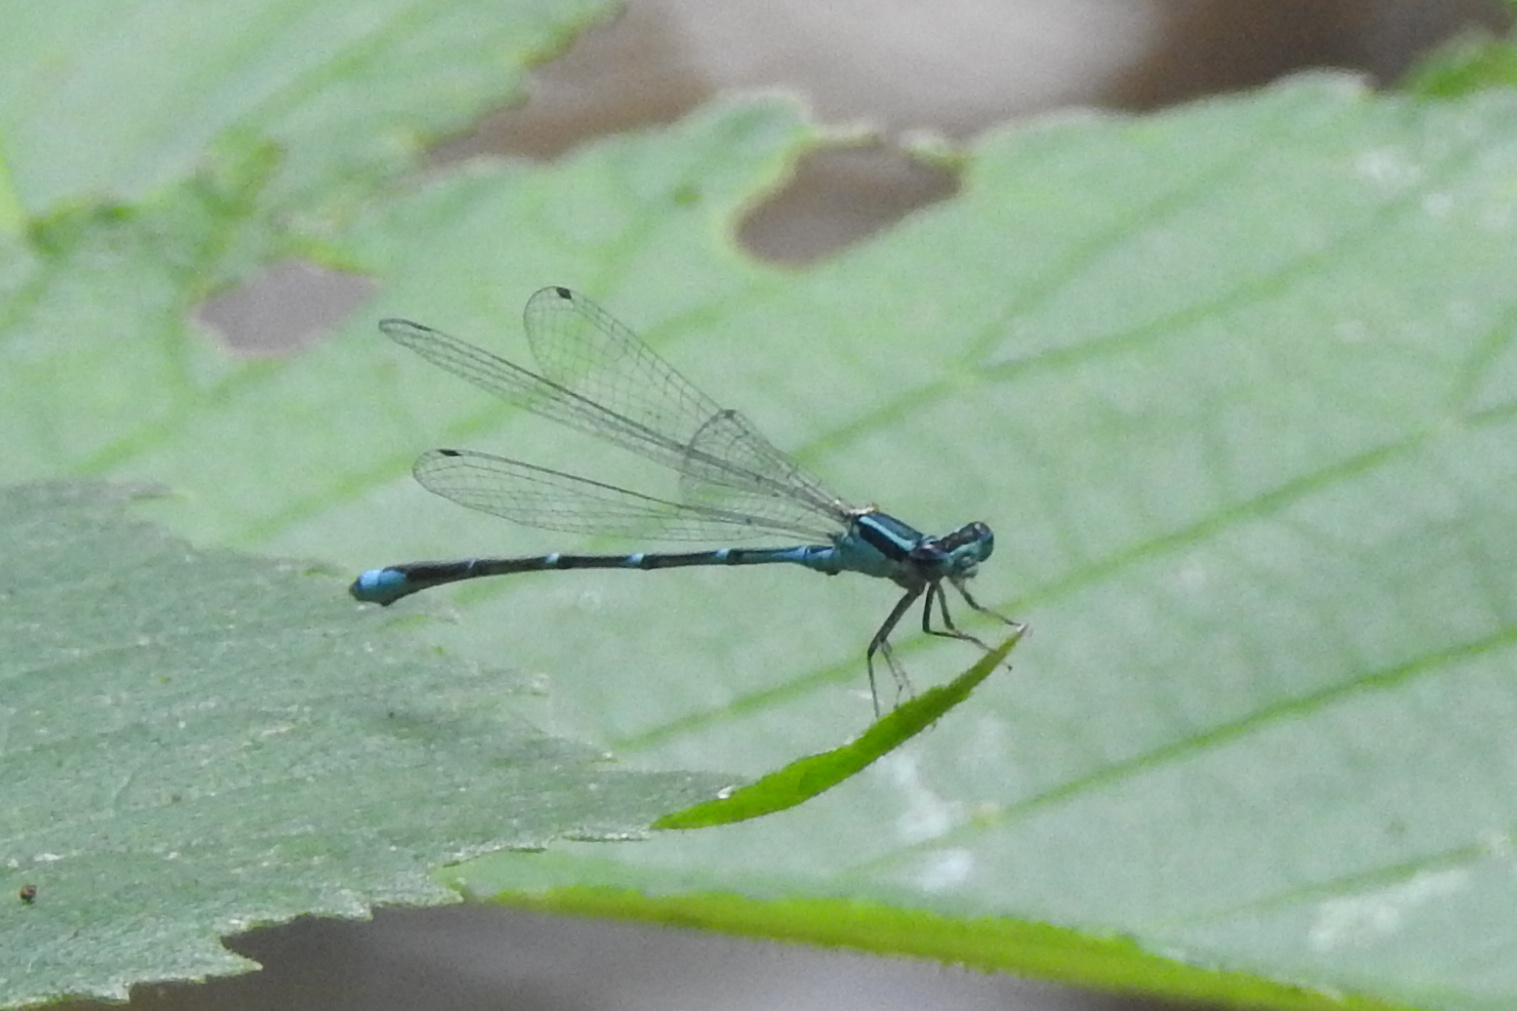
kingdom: Animalia
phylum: Arthropoda
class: Insecta
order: Odonata
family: Coenagrionidae
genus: Enallagma
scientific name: Enallagma exsulans
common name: Stream bluet
